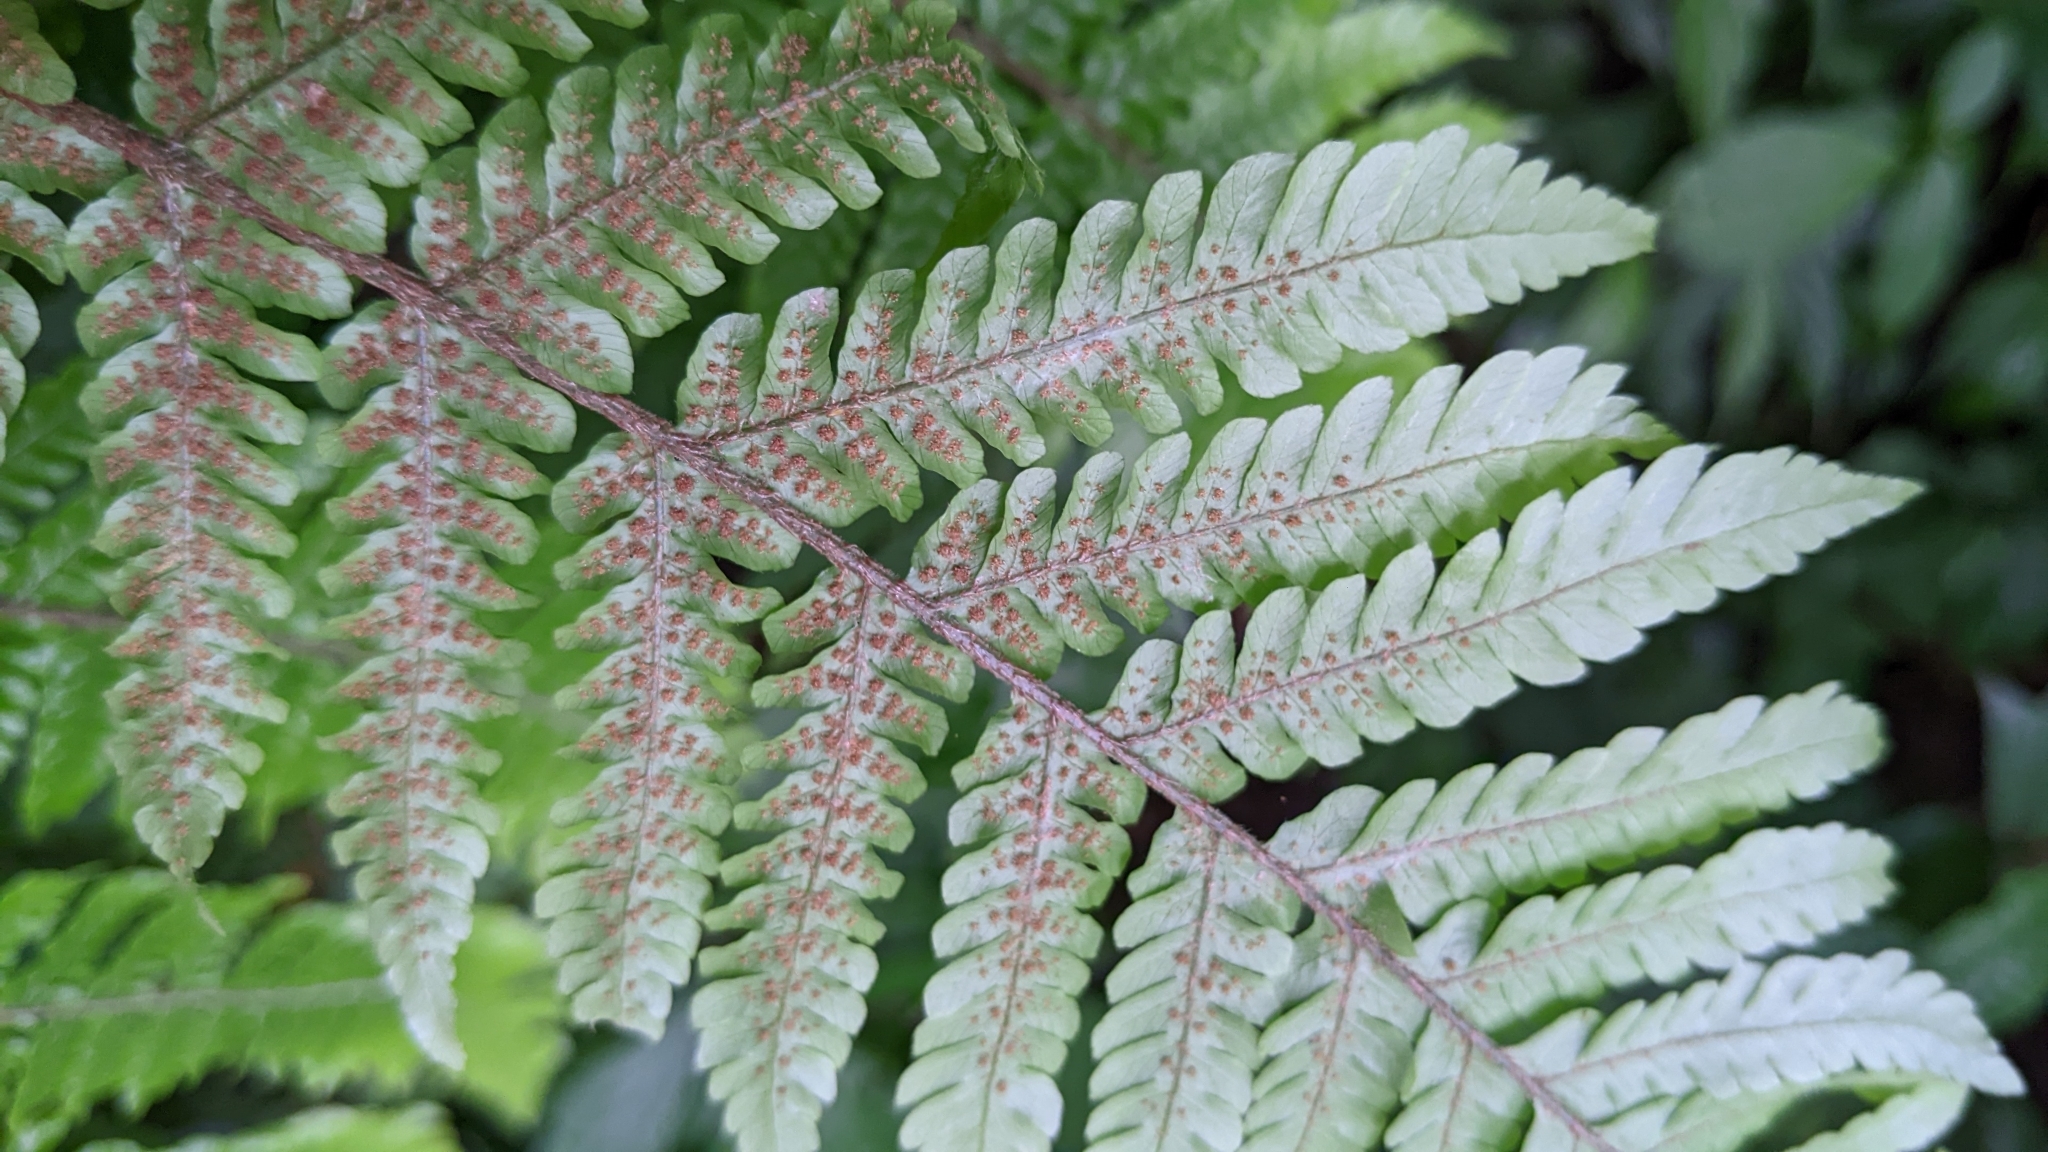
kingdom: Plantae
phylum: Tracheophyta
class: Polypodiopsida
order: Polypodiales
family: Dryopteridaceae
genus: Ctenitis
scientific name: Ctenitis subglandulosa
